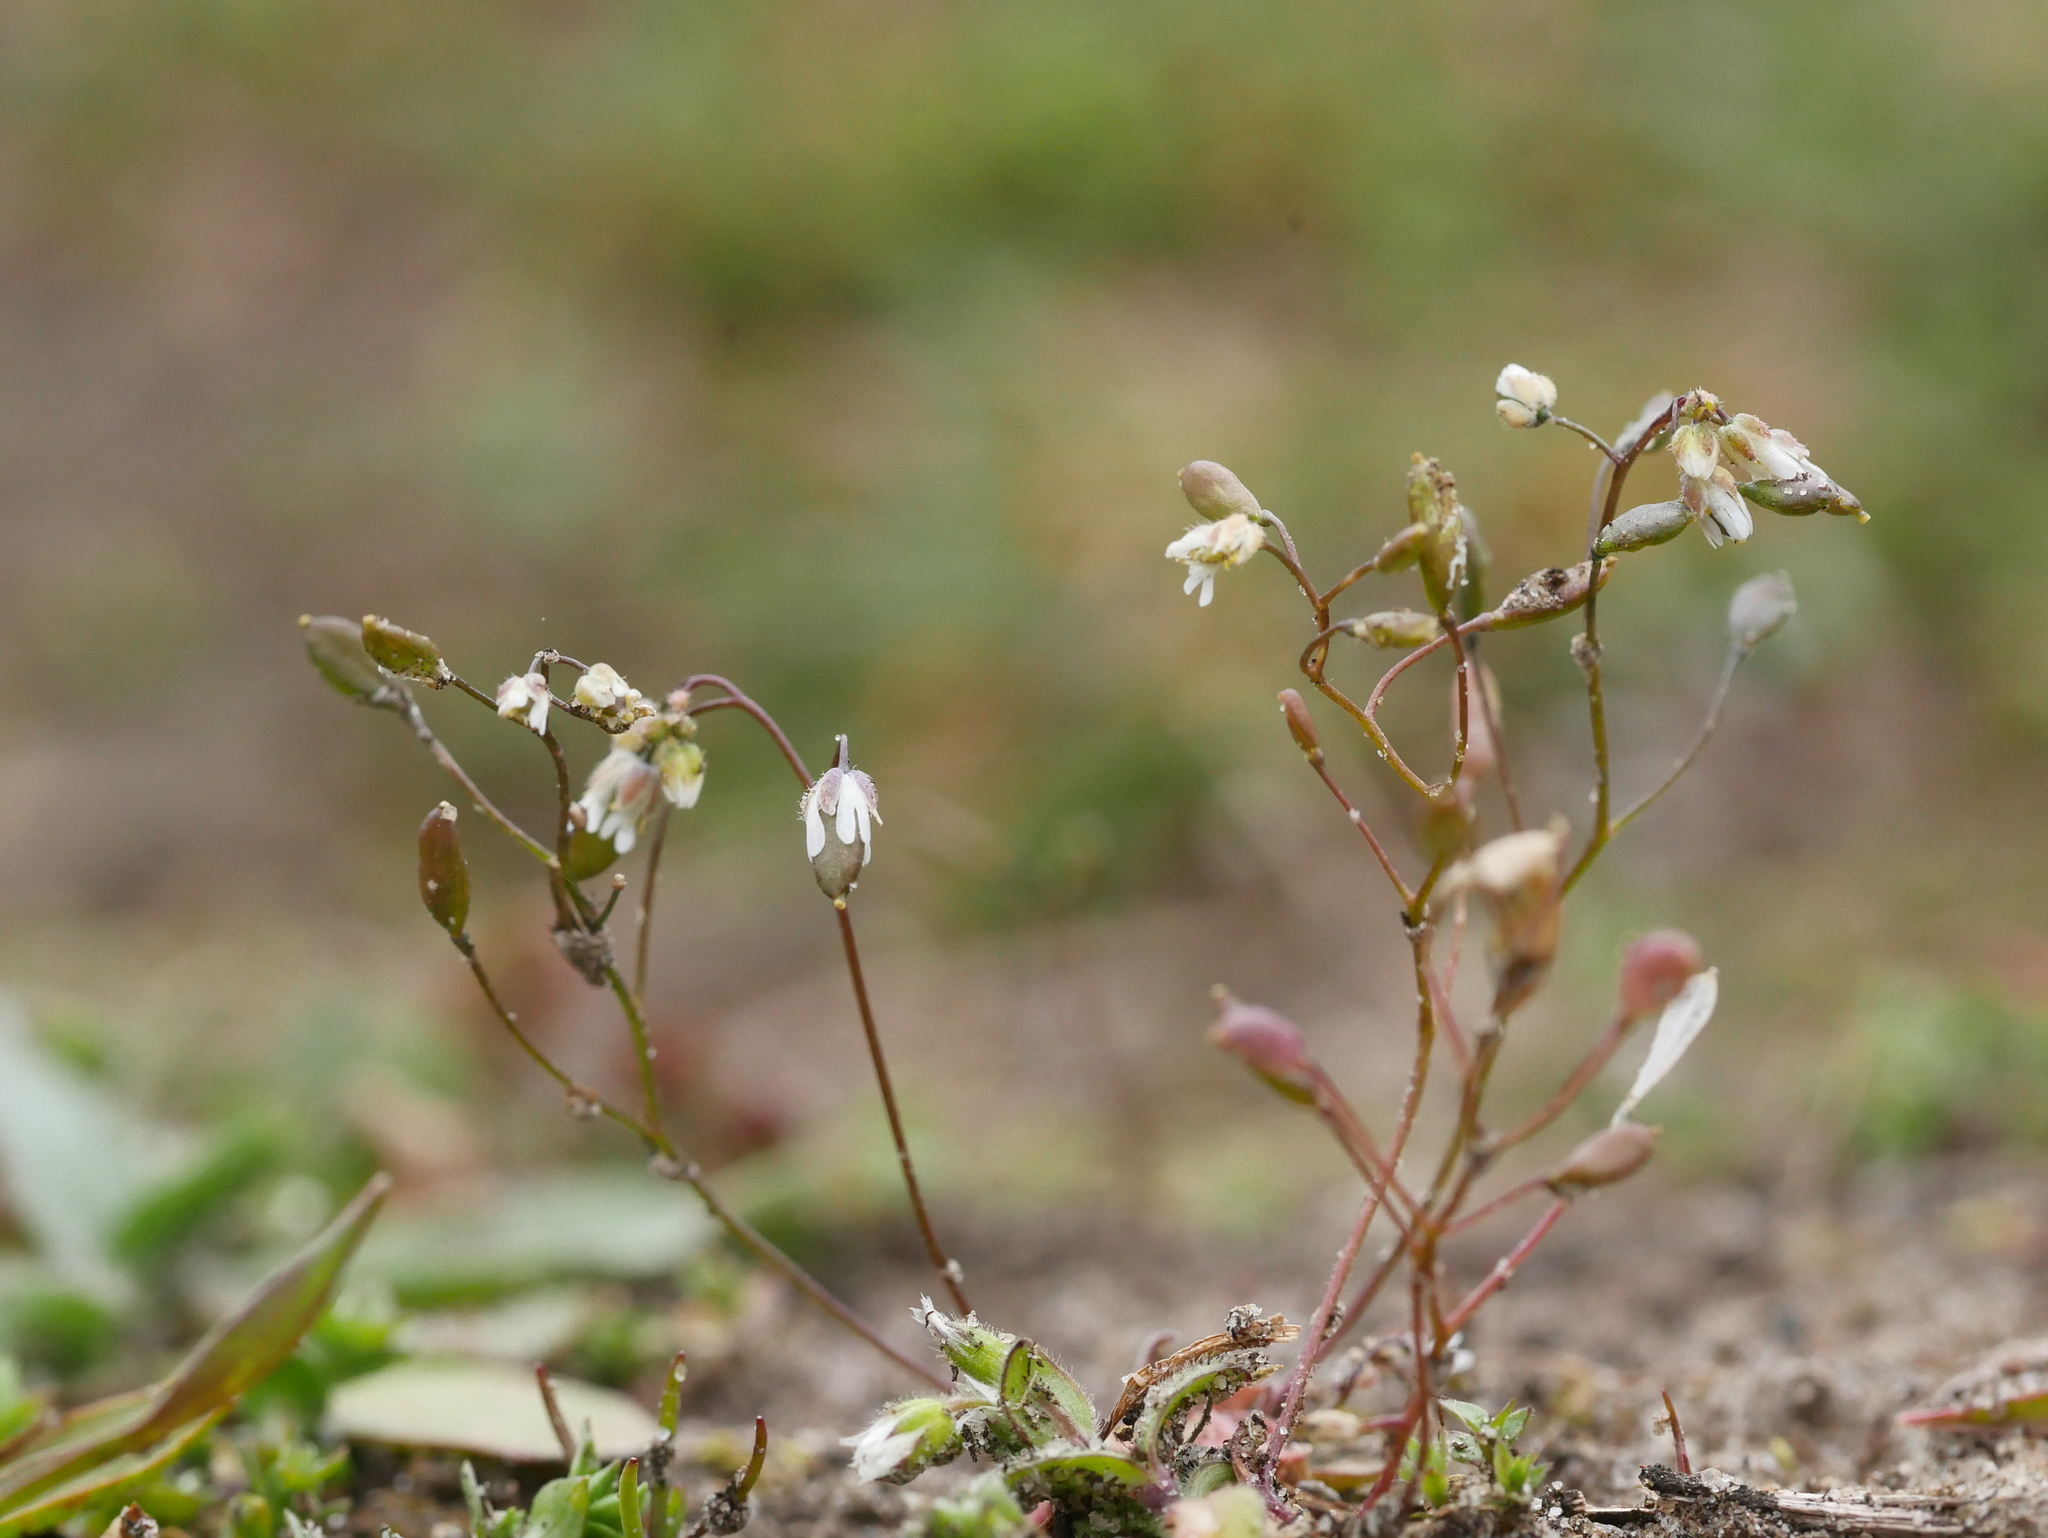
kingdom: Plantae
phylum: Tracheophyta
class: Magnoliopsida
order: Brassicales
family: Brassicaceae
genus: Draba
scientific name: Draba verna
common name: Spring draba
